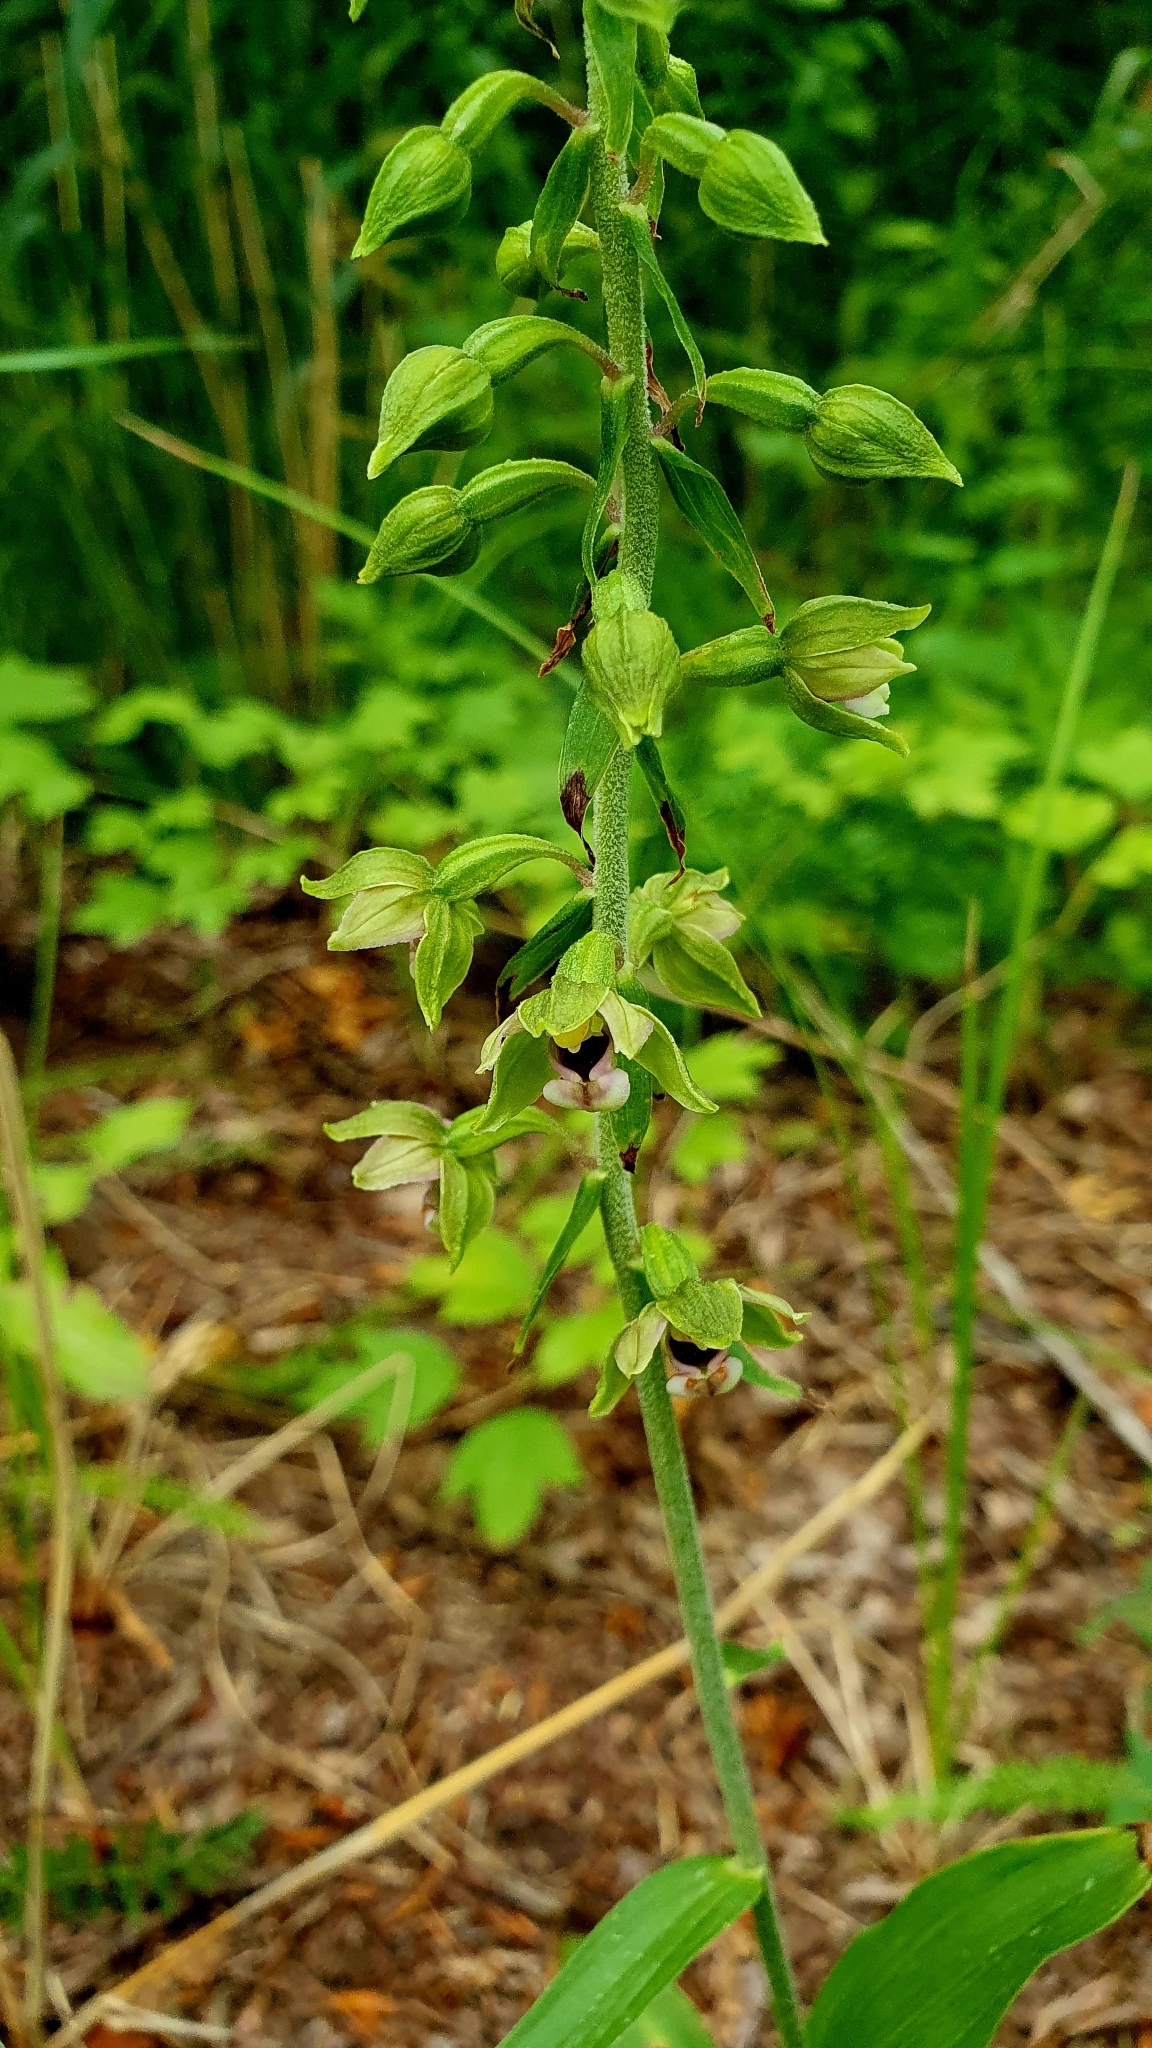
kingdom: Plantae
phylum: Tracheophyta
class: Liliopsida
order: Asparagales
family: Orchidaceae
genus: Epipactis
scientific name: Epipactis helleborine
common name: Broad-leaved helleborine
